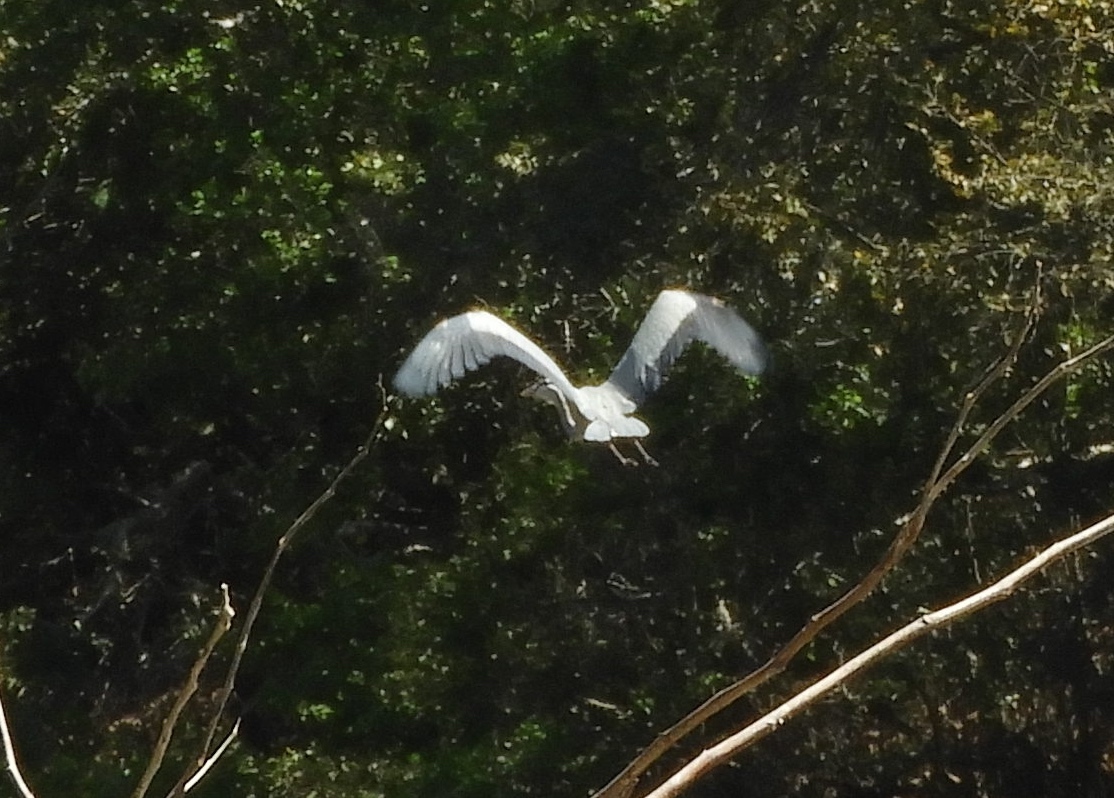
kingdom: Animalia
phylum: Chordata
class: Aves
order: Pelecaniformes
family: Ardeidae
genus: Ardea
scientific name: Ardea herodias
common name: Great blue heron
